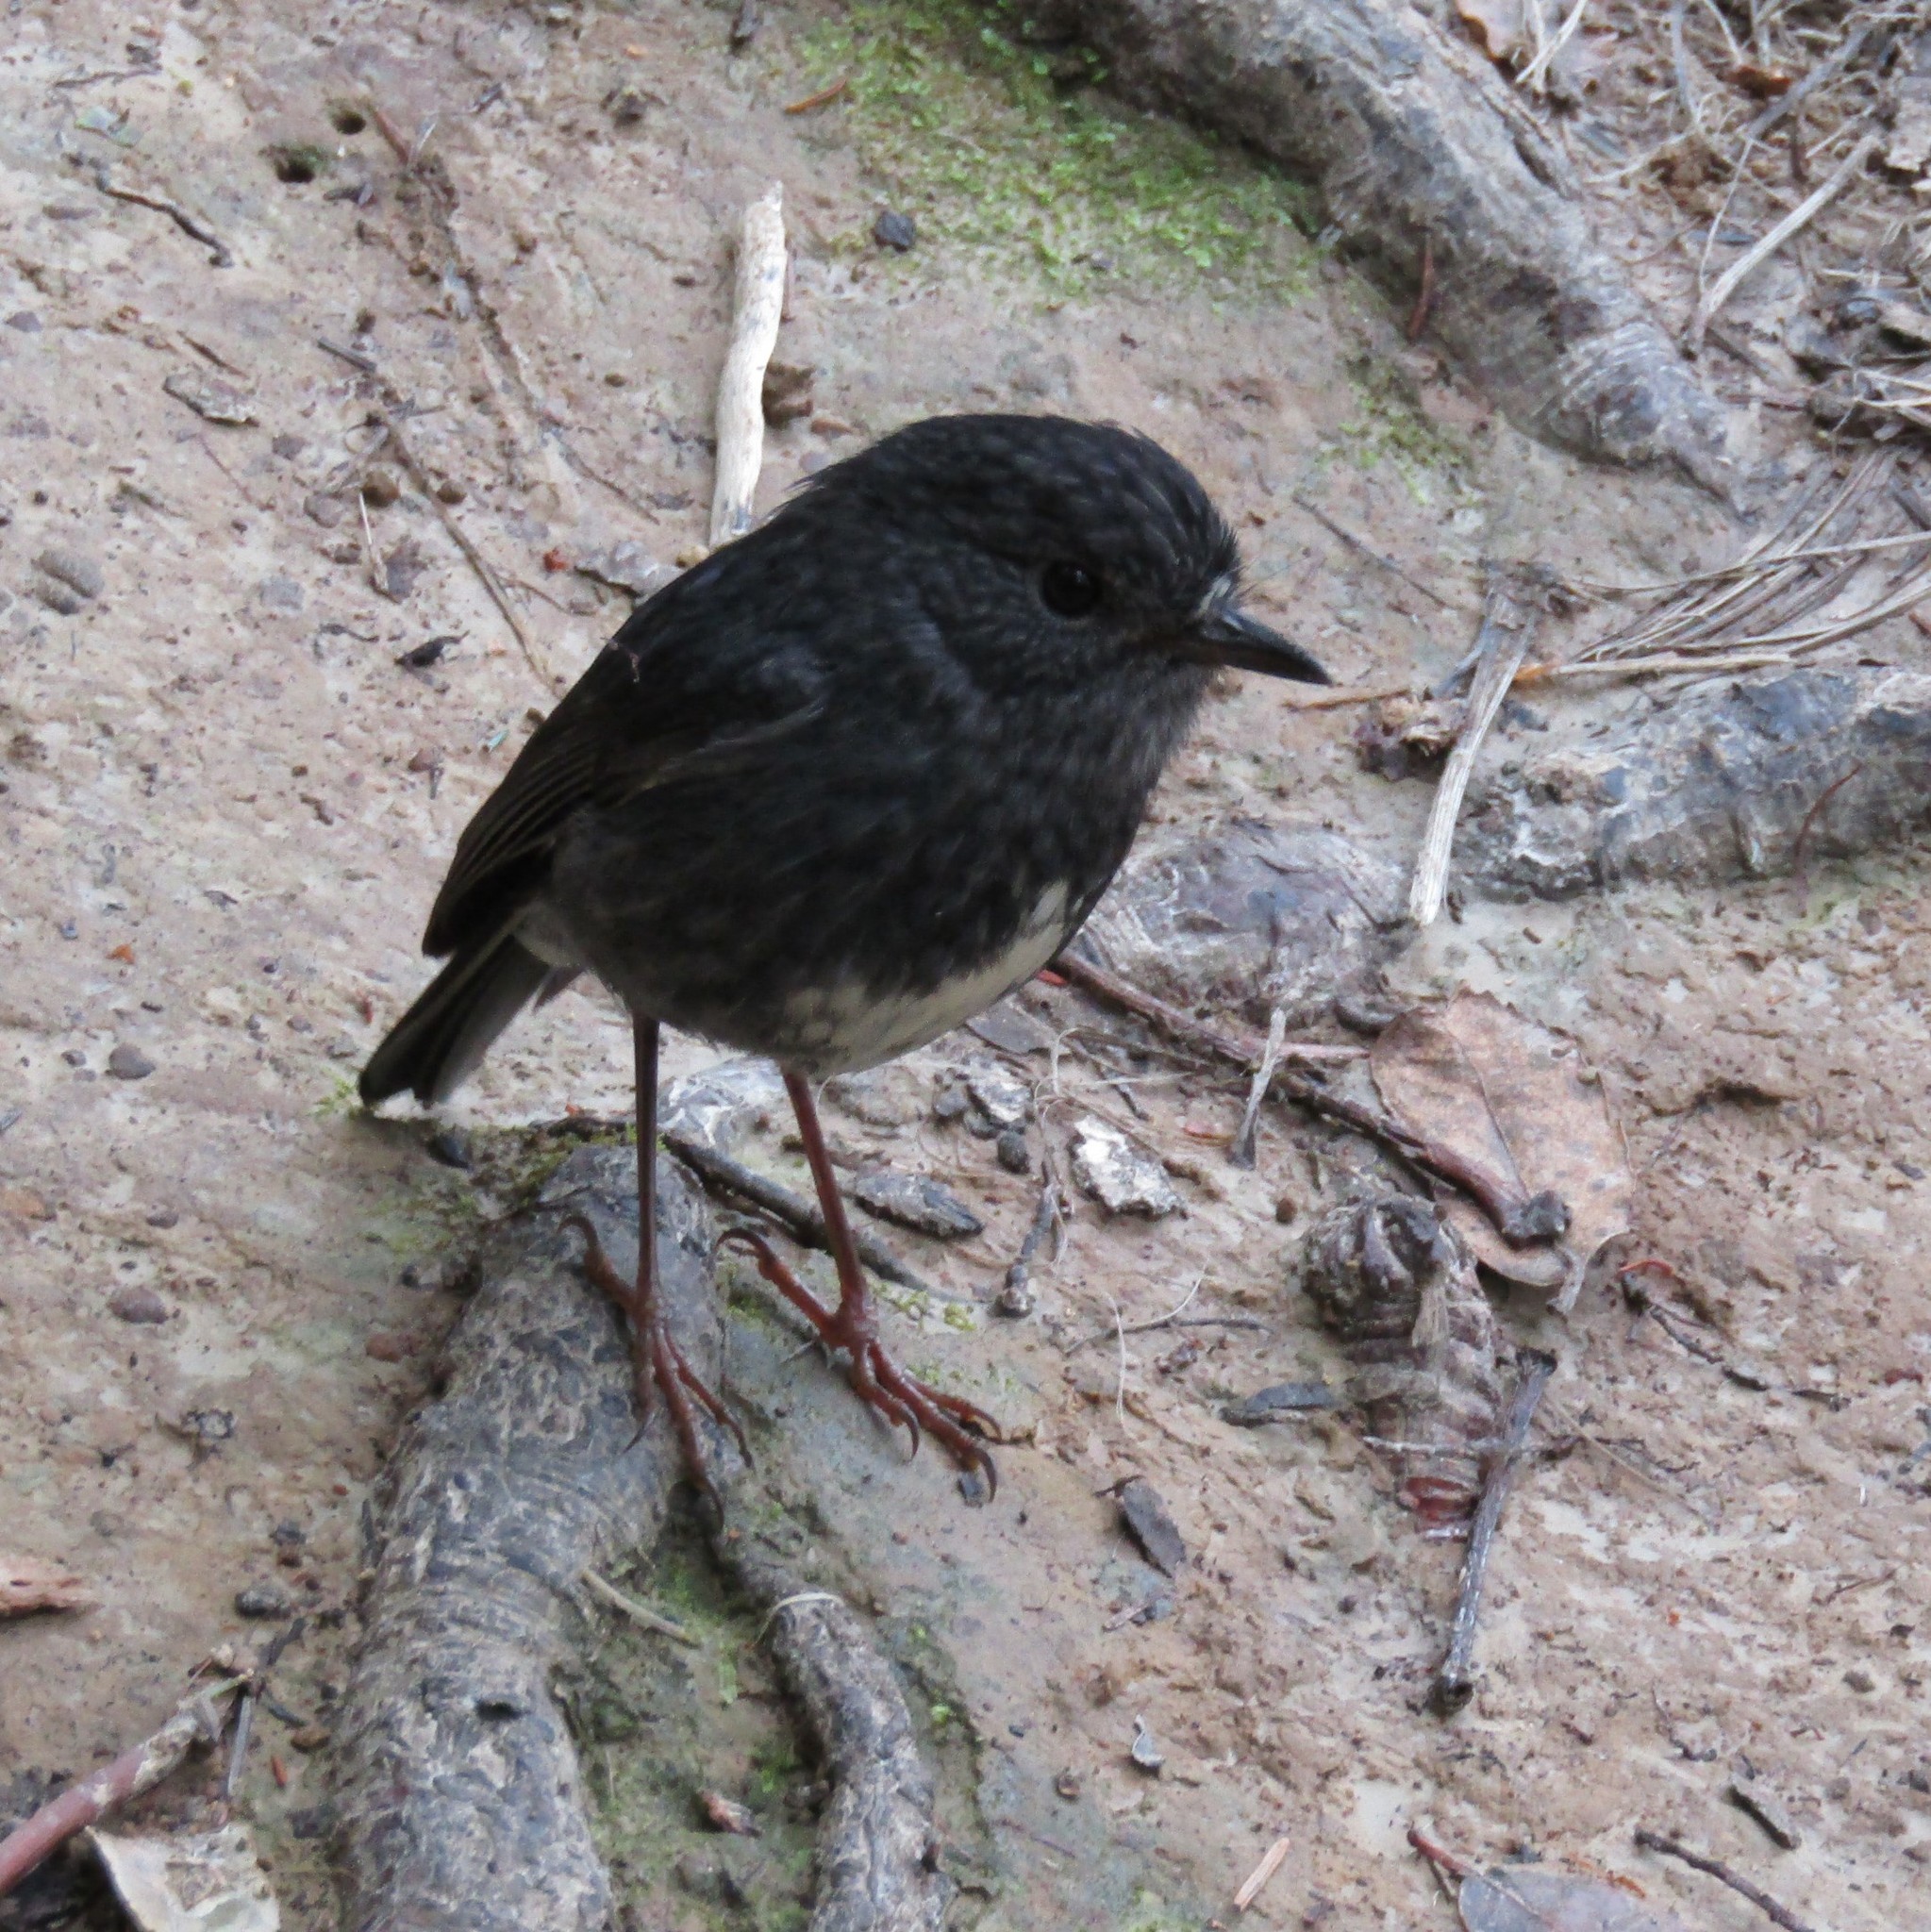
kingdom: Animalia
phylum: Chordata
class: Aves
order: Passeriformes
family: Petroicidae
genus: Petroica
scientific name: Petroica australis
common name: New zealand robin
